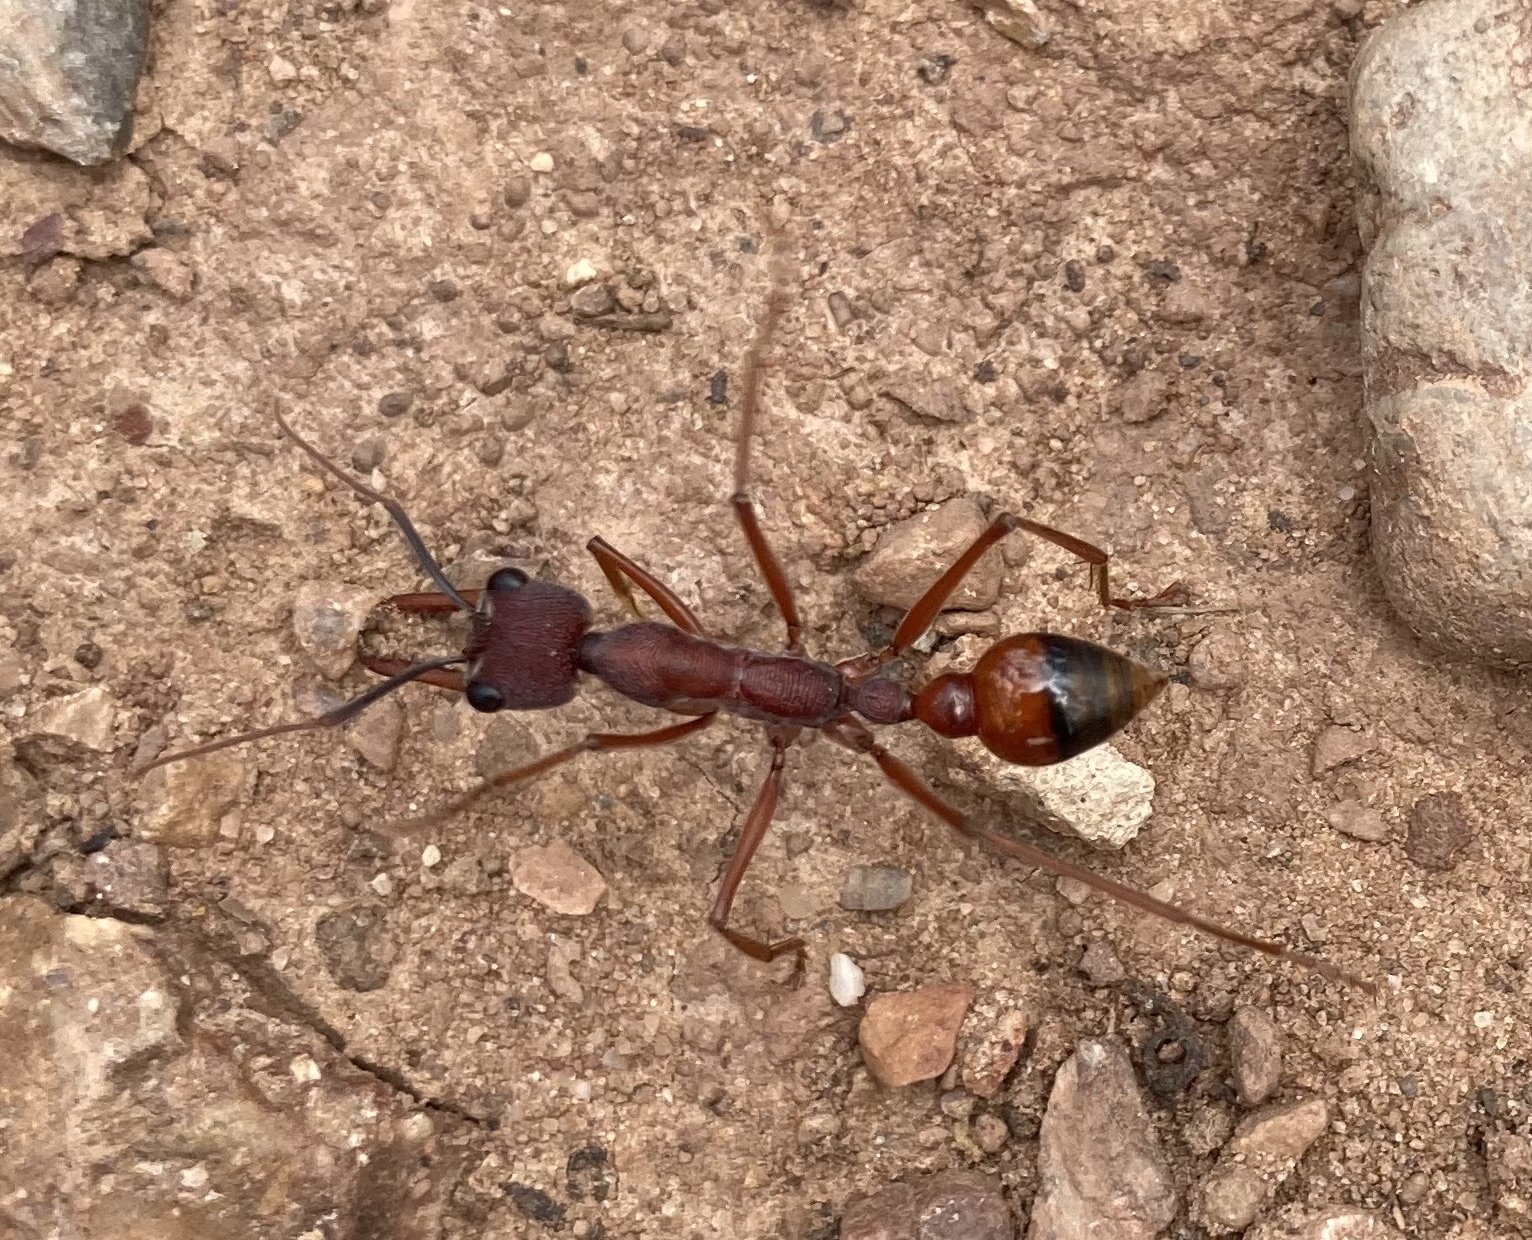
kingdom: Animalia
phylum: Arthropoda
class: Insecta
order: Hymenoptera
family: Formicidae
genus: Myrmecia
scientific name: Myrmecia nigriscapa
